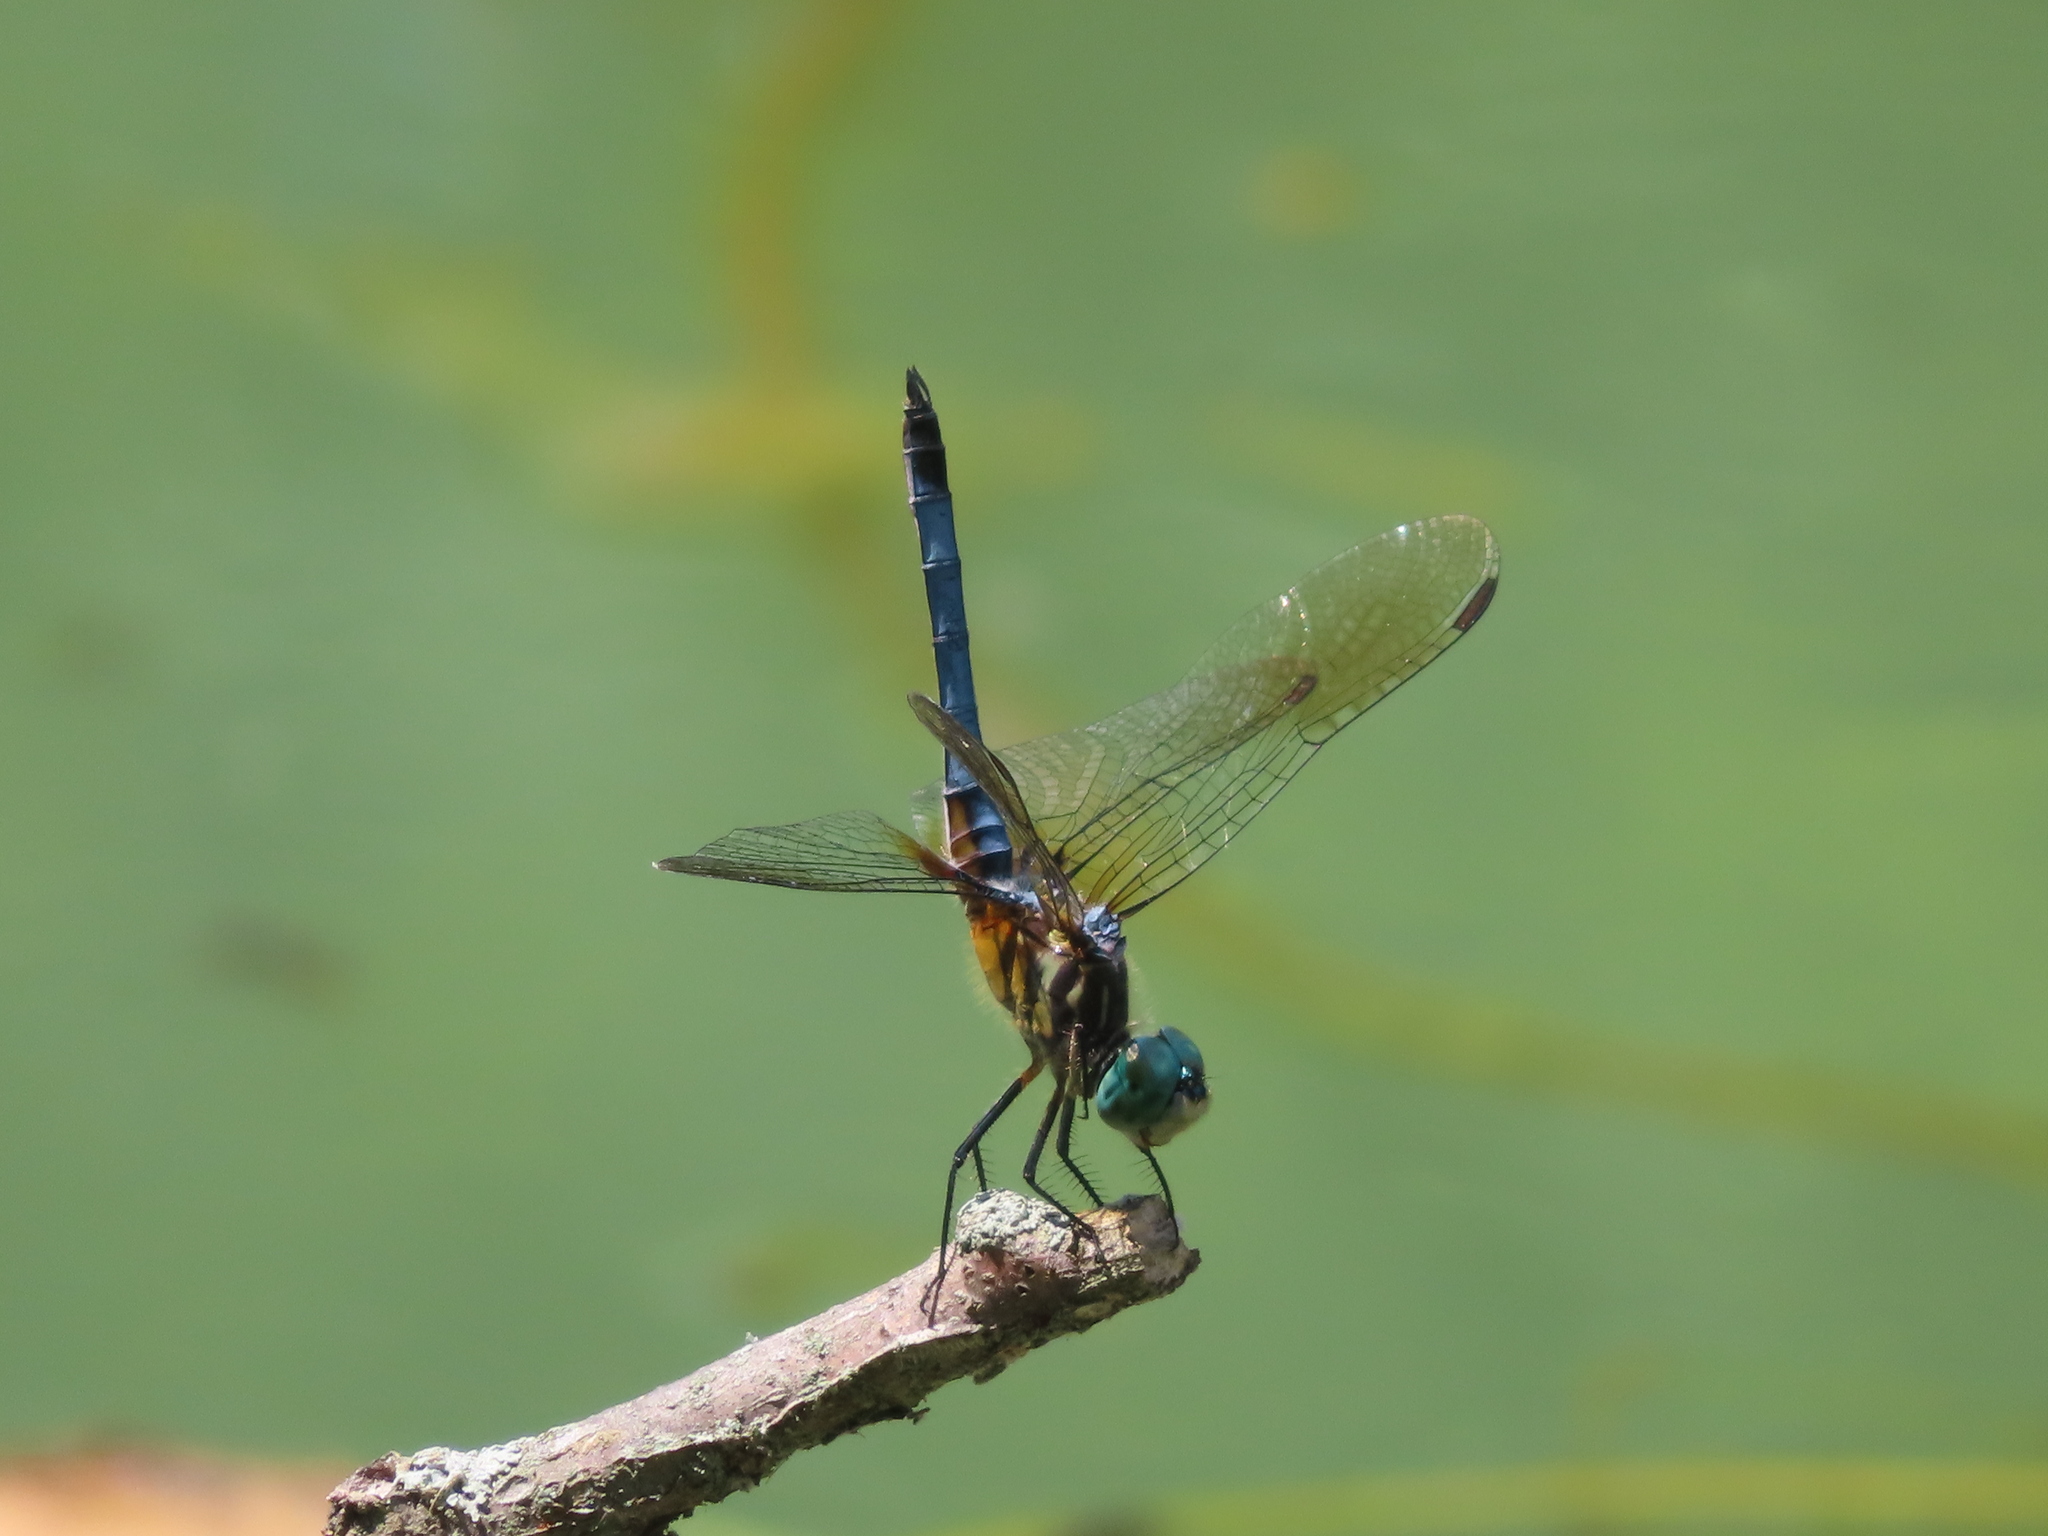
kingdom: Animalia
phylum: Arthropoda
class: Insecta
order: Odonata
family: Libellulidae
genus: Pachydiplax
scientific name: Pachydiplax longipennis
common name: Blue dasher
